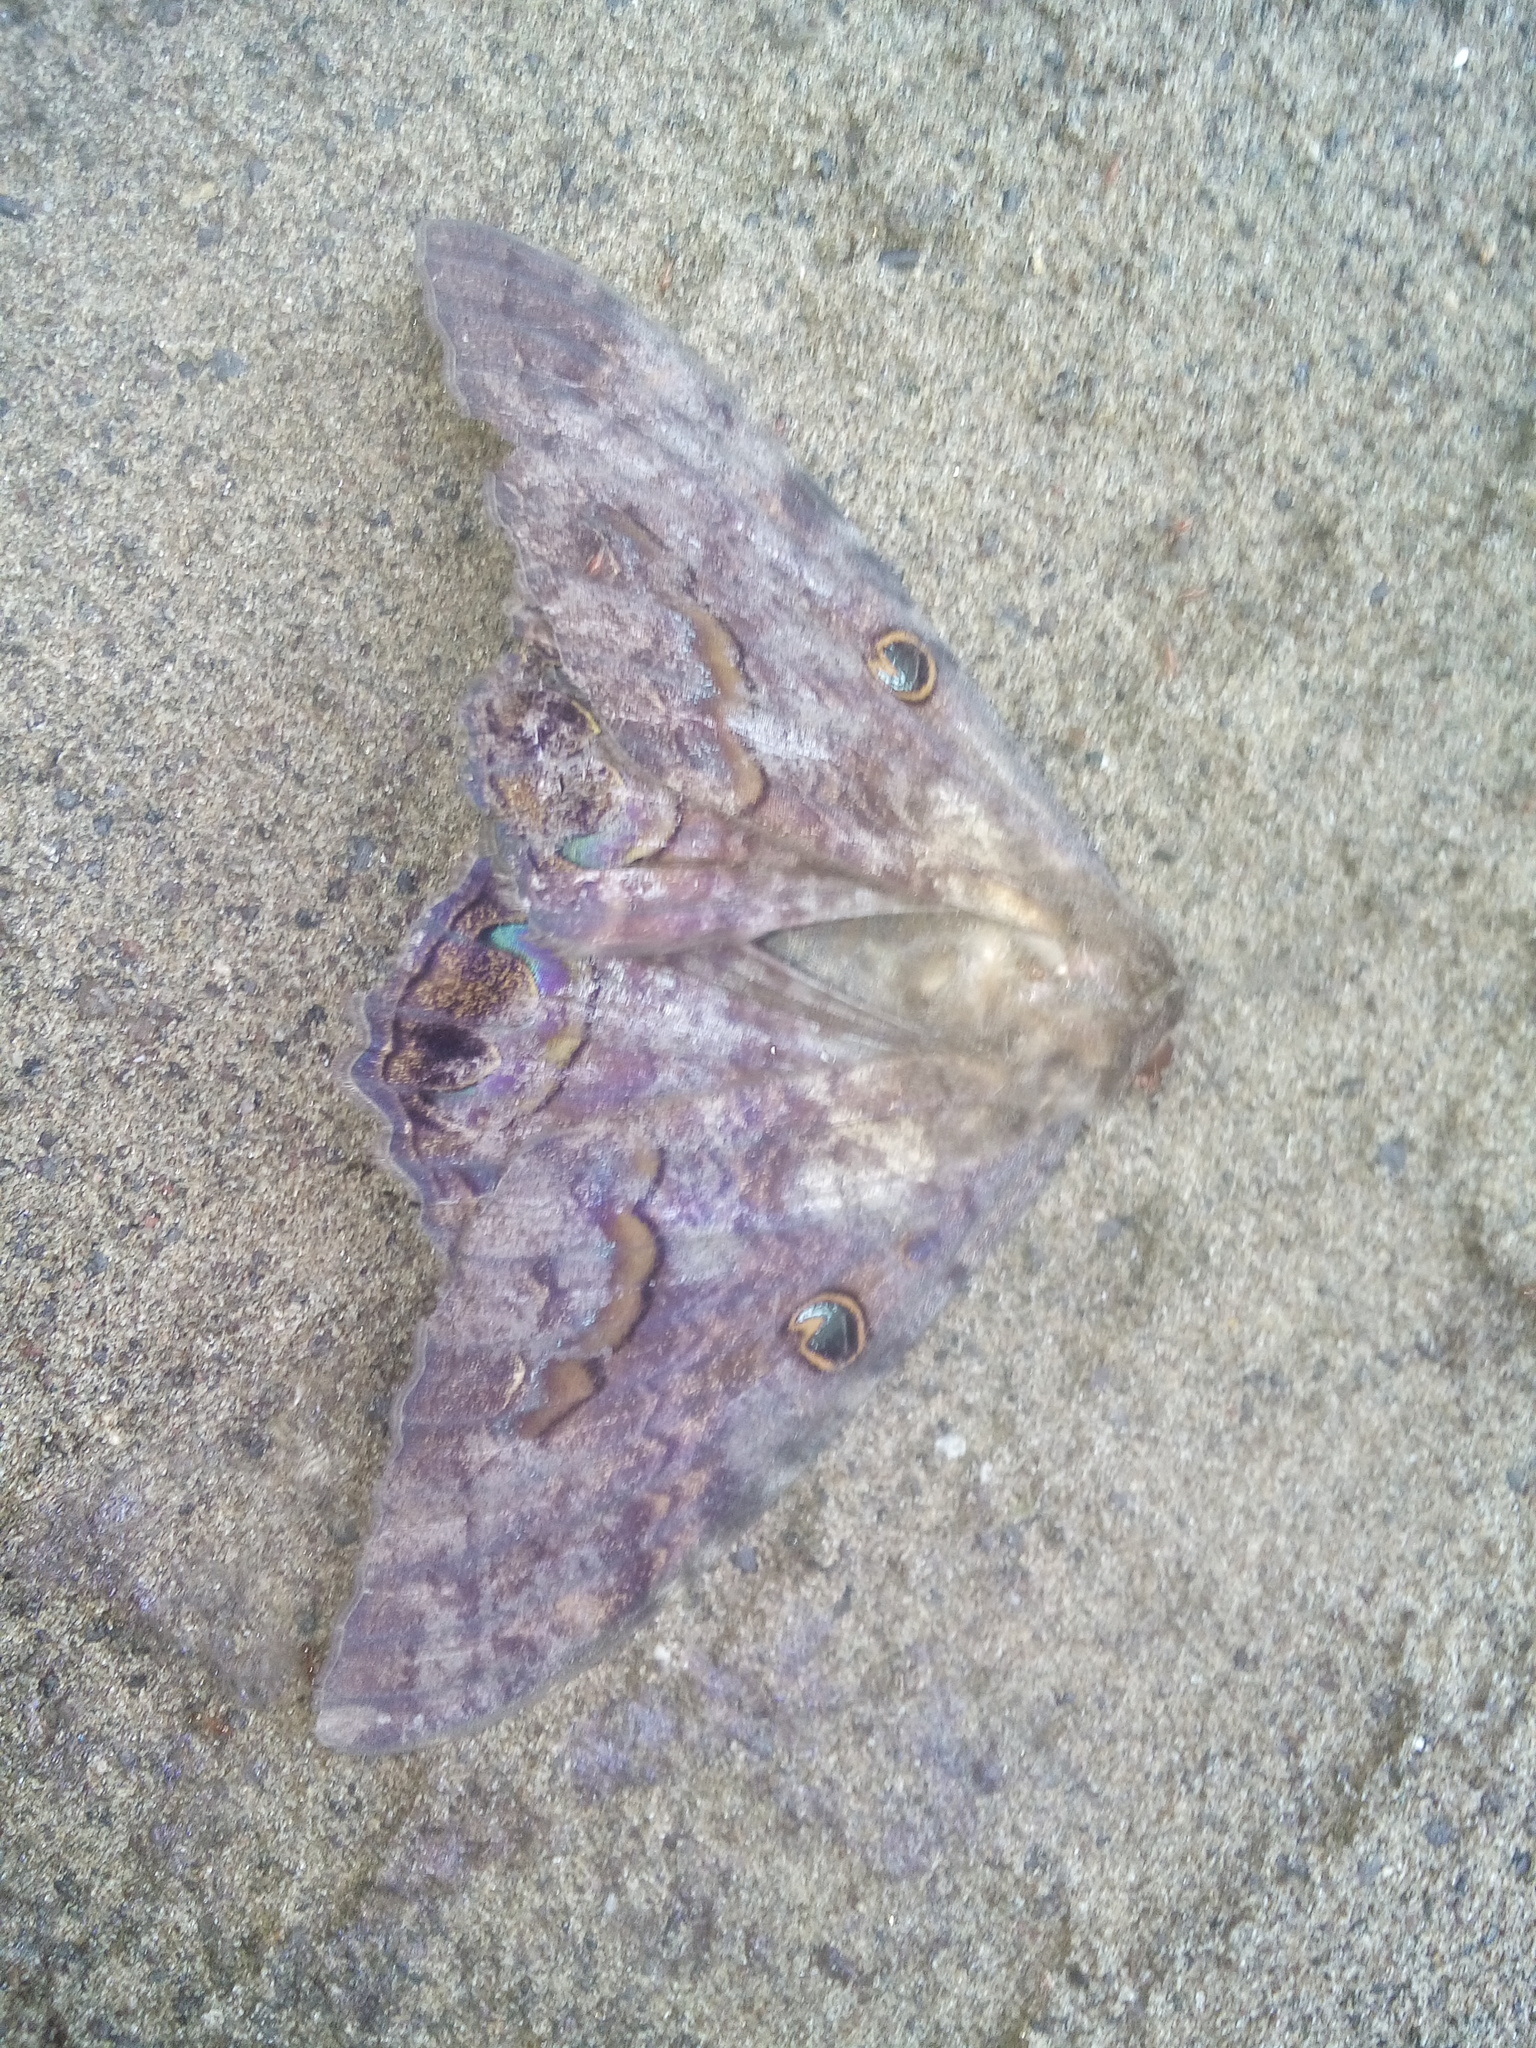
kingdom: Animalia
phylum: Arthropoda
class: Insecta
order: Lepidoptera
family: Erebidae
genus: Ascalapha
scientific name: Ascalapha odorata
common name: Black witch
